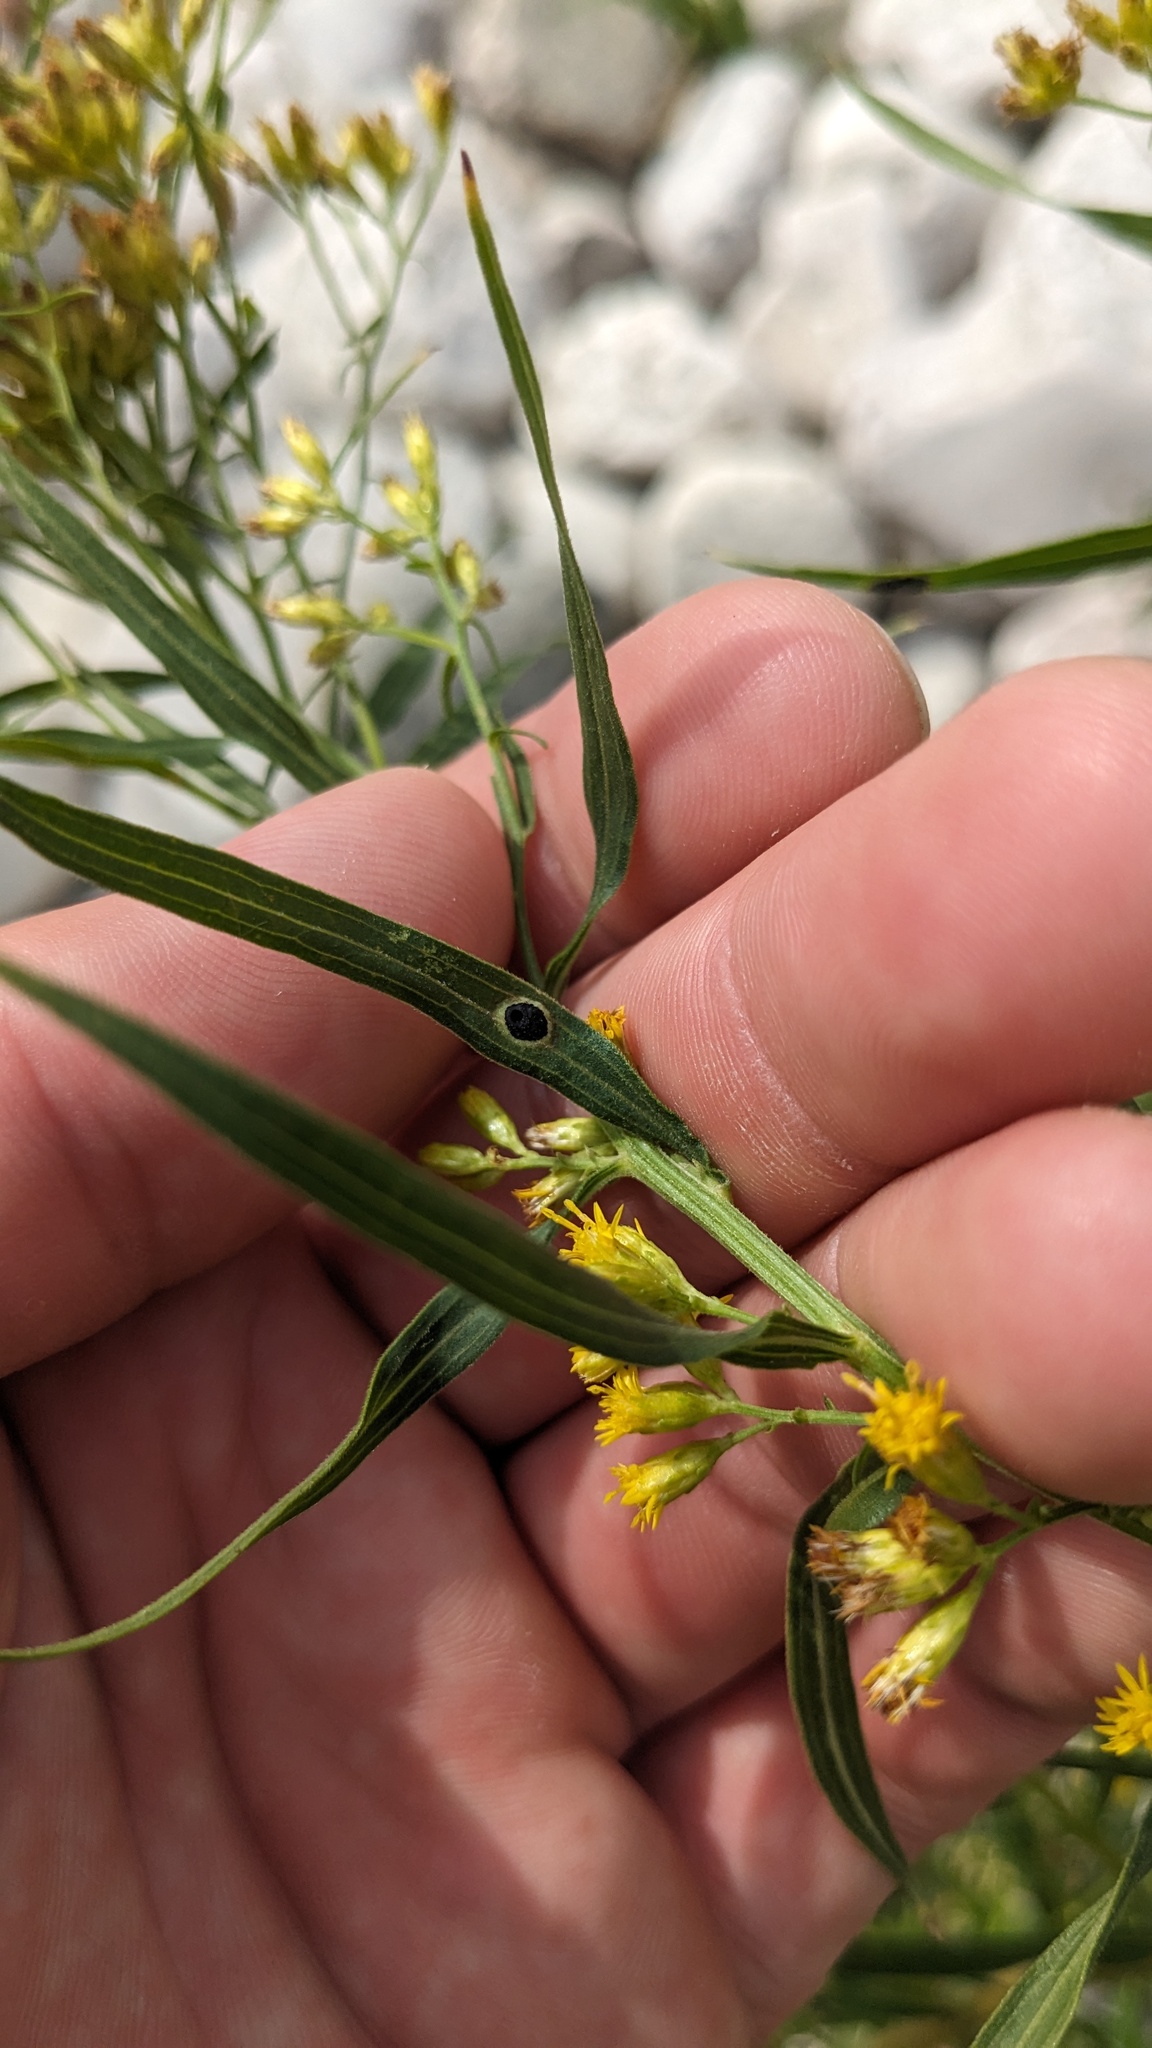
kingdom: Animalia
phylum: Arthropoda
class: Insecta
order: Diptera
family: Cecidomyiidae
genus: Asteromyia
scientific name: Asteromyia euthamiae
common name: Euthamia leaf gall midge
